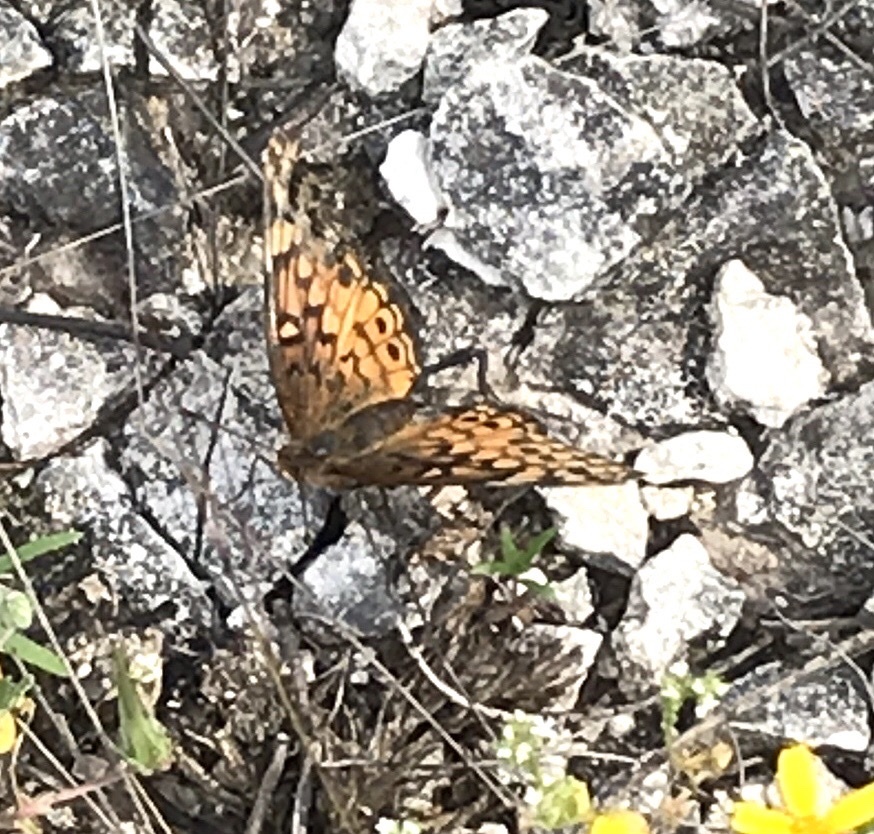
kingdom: Animalia
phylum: Arthropoda
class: Insecta
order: Lepidoptera
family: Nymphalidae
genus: Euptoieta
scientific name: Euptoieta claudia
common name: Variegated fritillary
